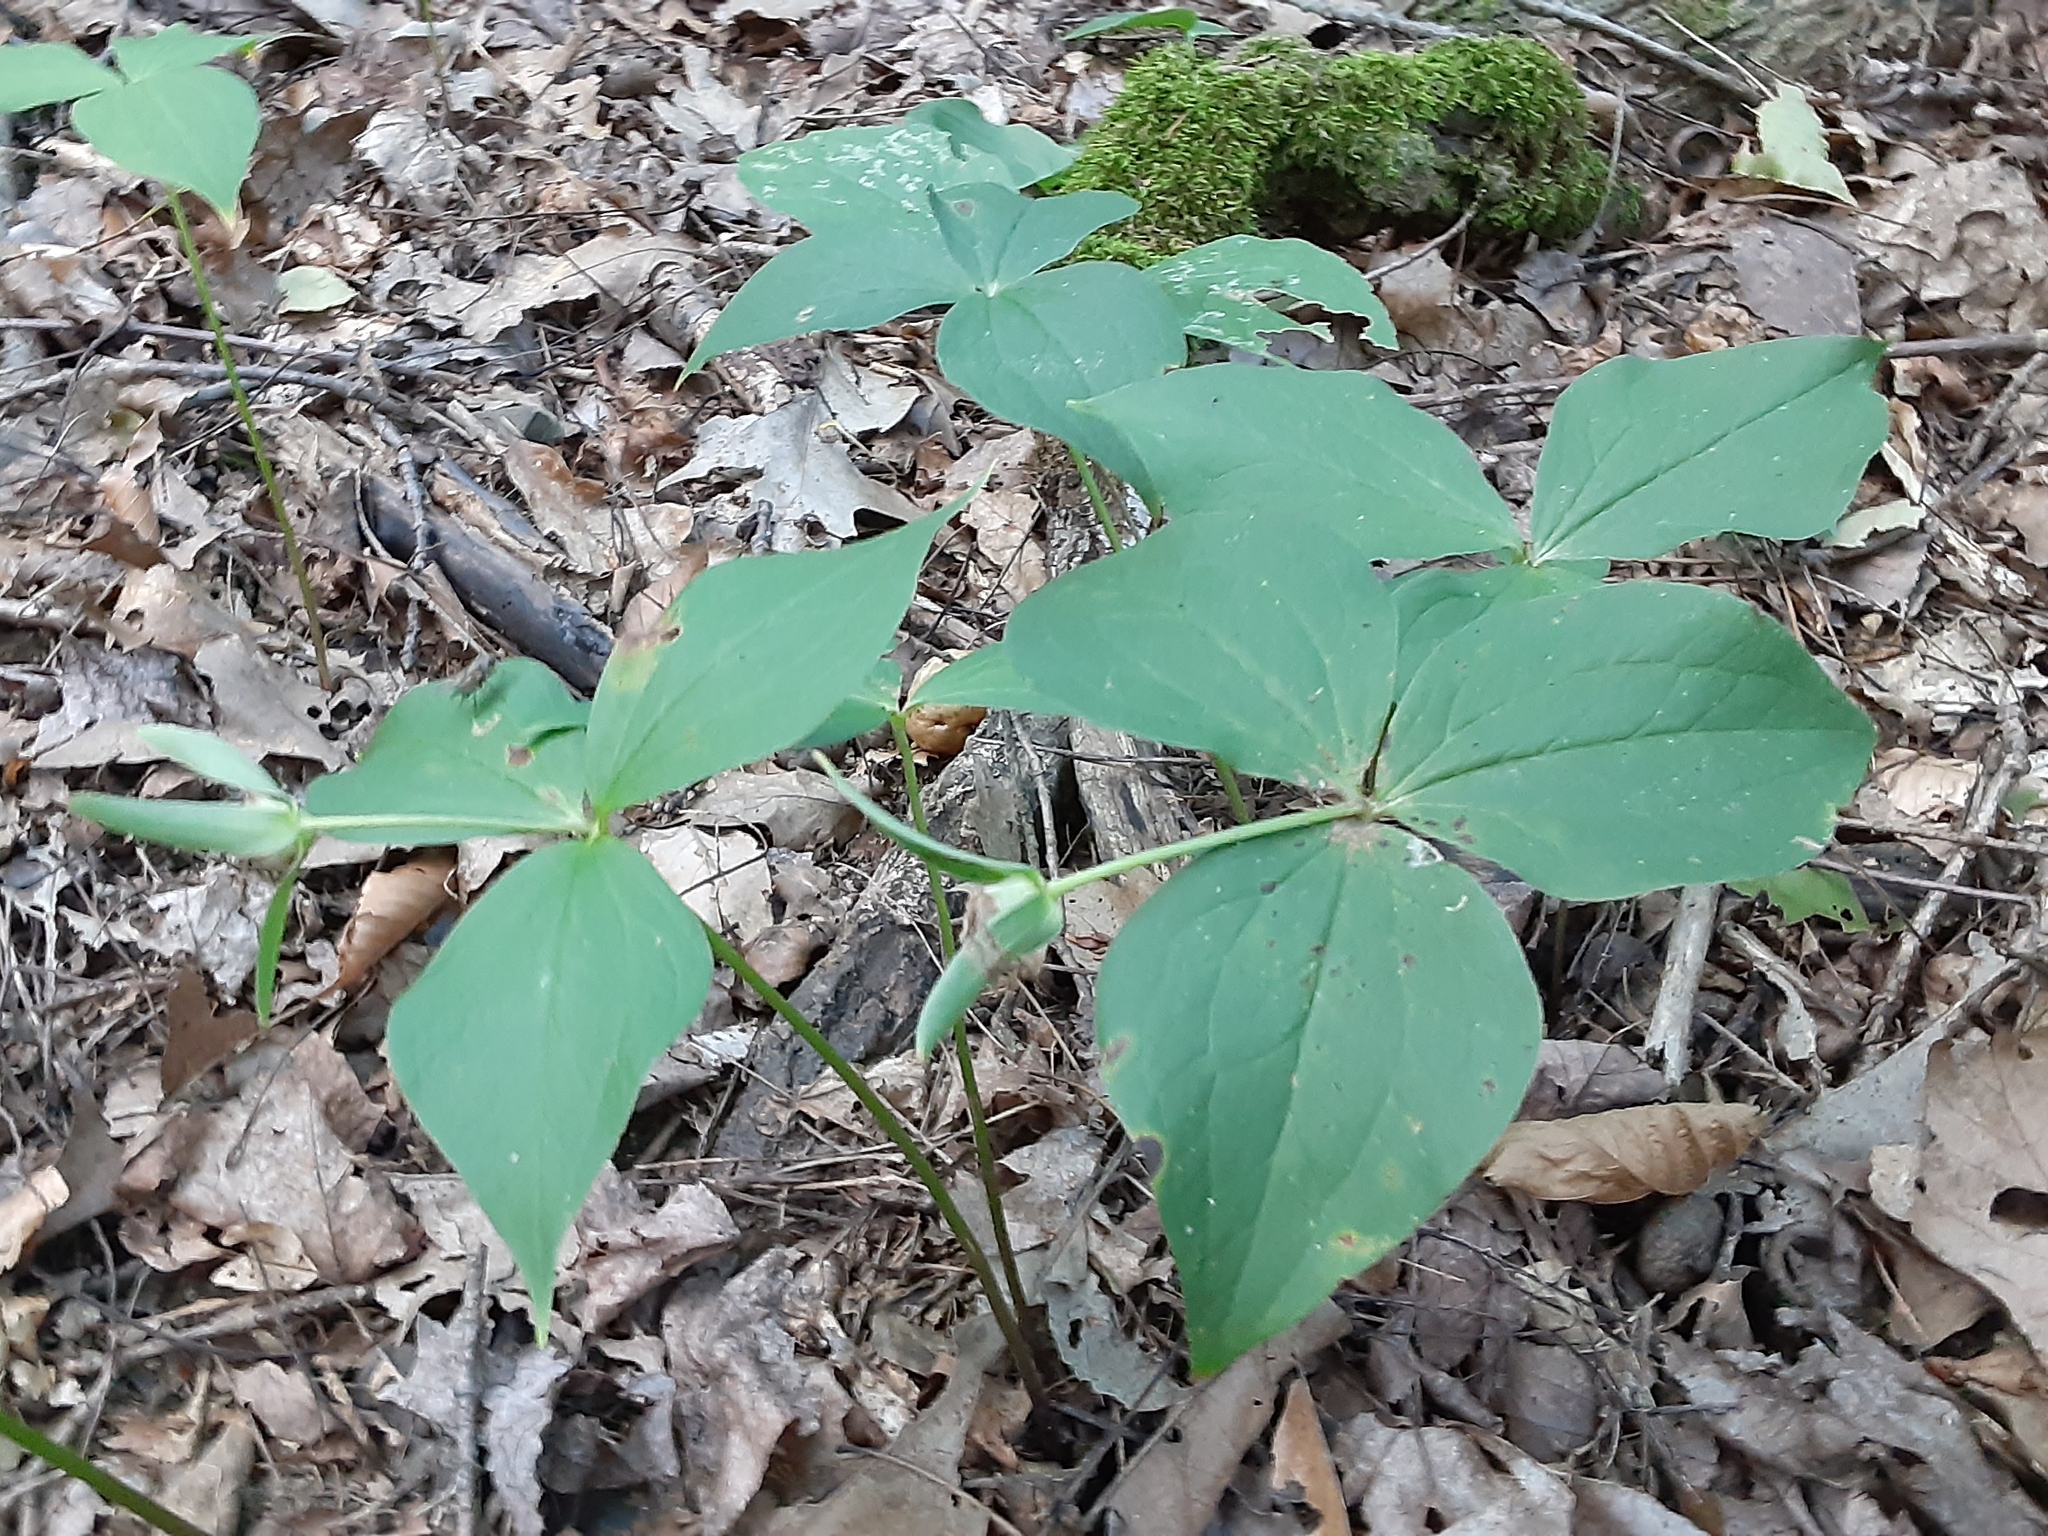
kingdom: Plantae
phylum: Tracheophyta
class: Liliopsida
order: Liliales
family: Melanthiaceae
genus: Trillium
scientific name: Trillium grandiflorum
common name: Great white trillium
